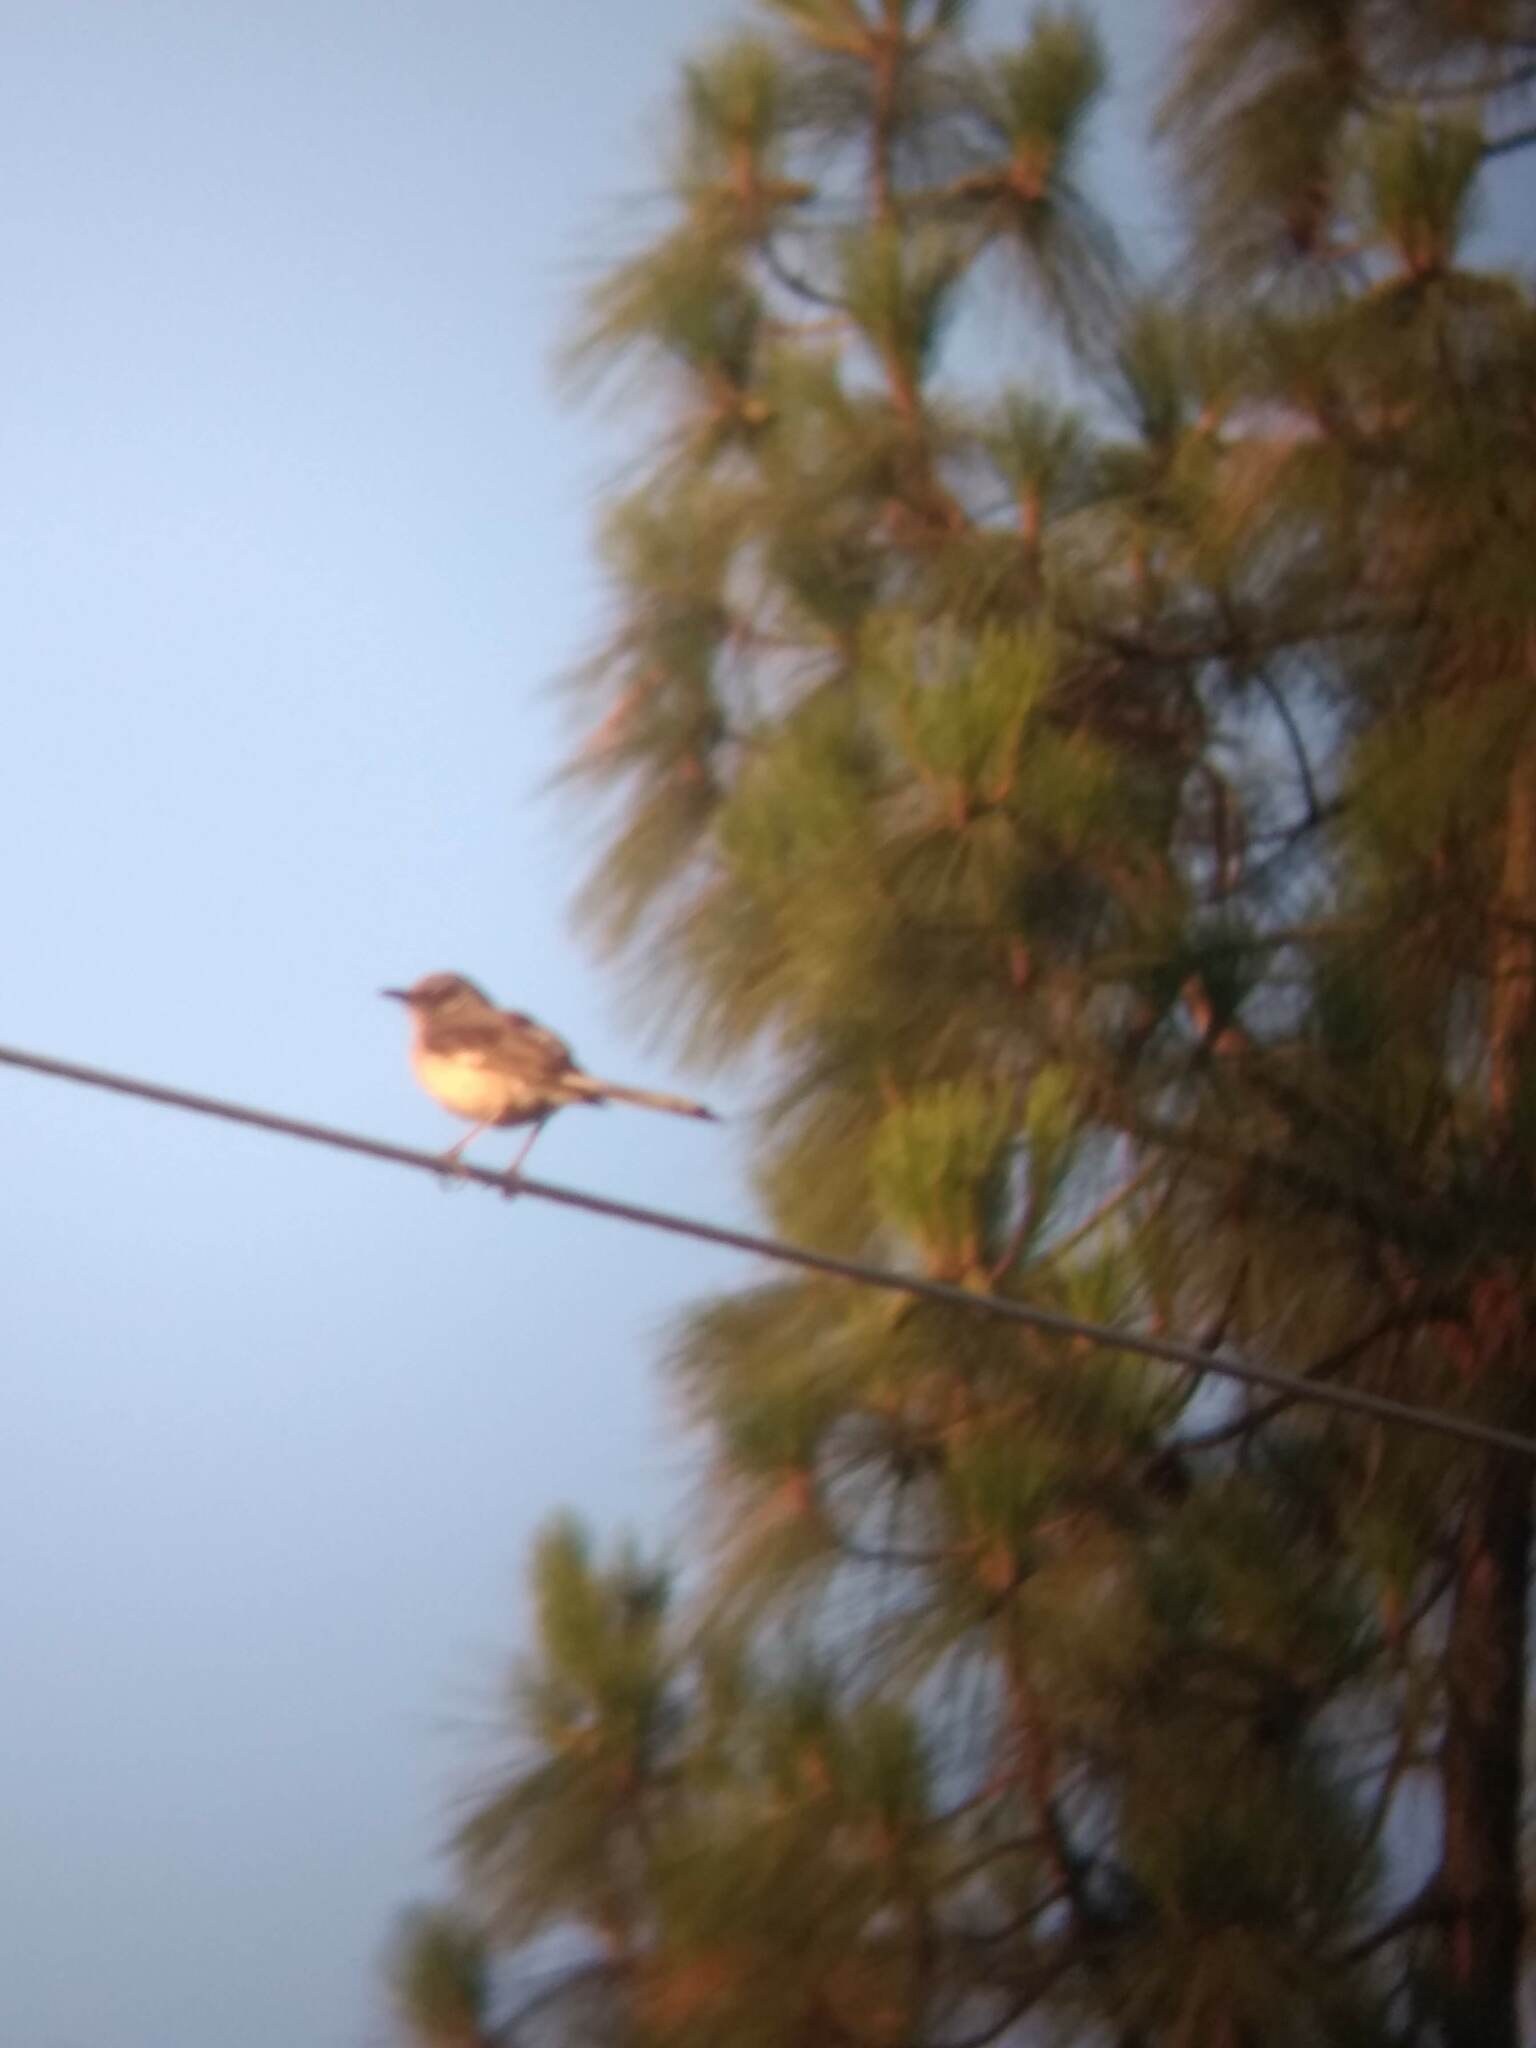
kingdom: Animalia
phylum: Chordata
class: Aves
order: Passeriformes
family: Mimidae
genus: Mimus
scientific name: Mimus polyglottos
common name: Northern mockingbird
